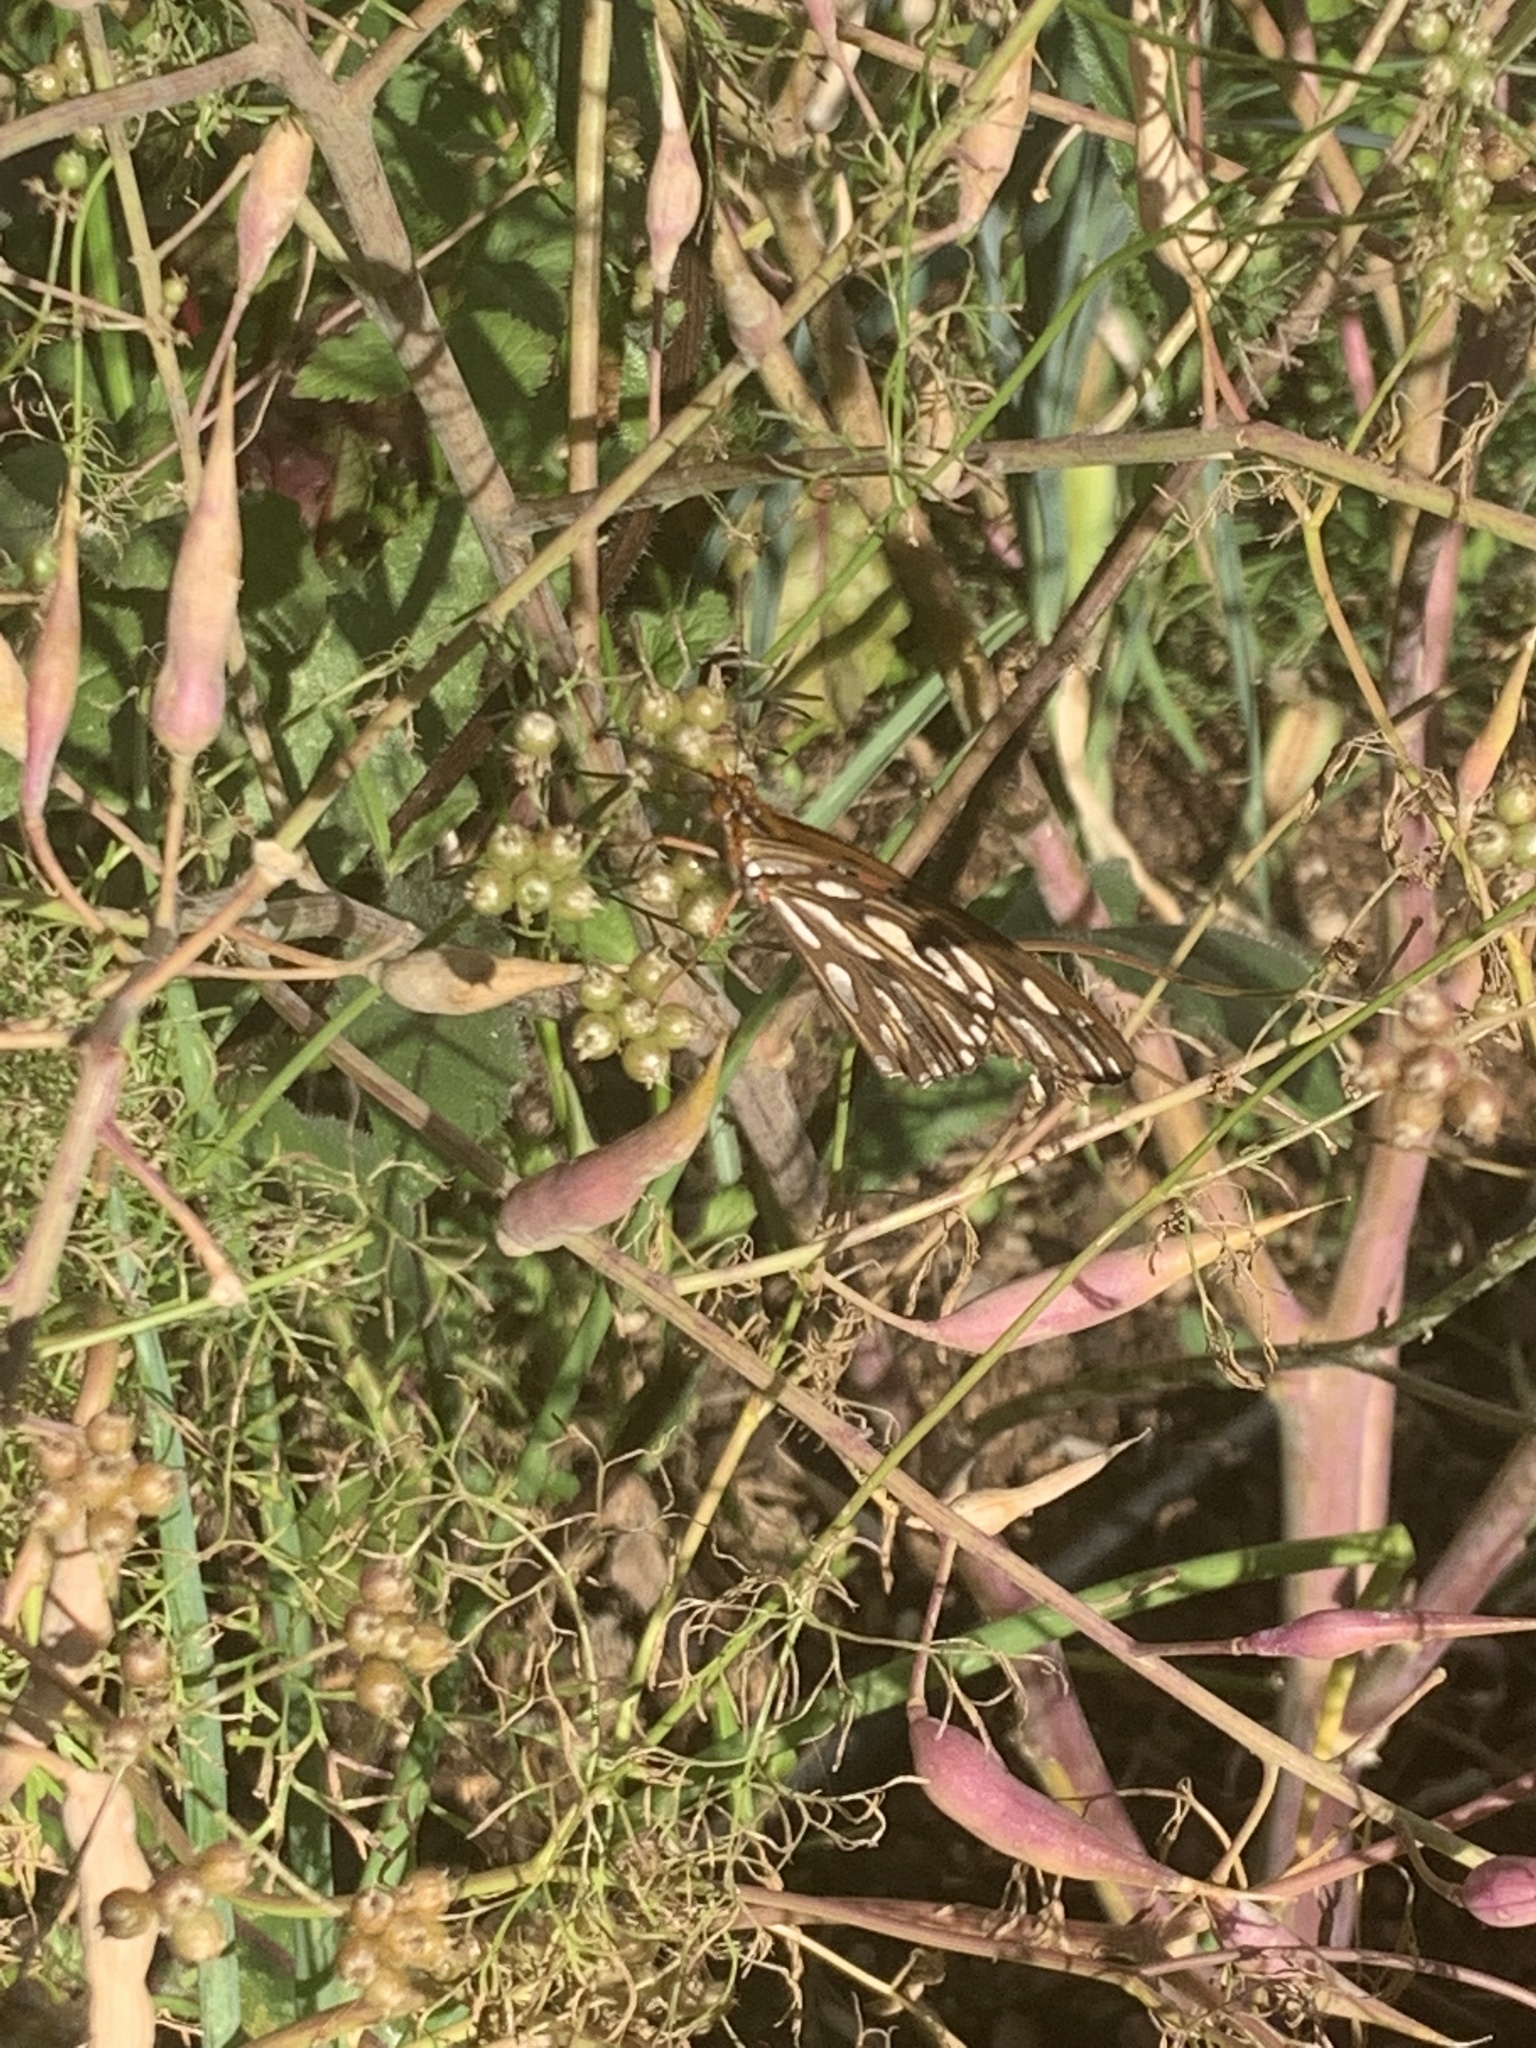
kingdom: Animalia
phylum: Arthropoda
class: Insecta
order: Lepidoptera
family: Nymphalidae
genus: Dione
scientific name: Dione vanillae
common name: Gulf fritillary
